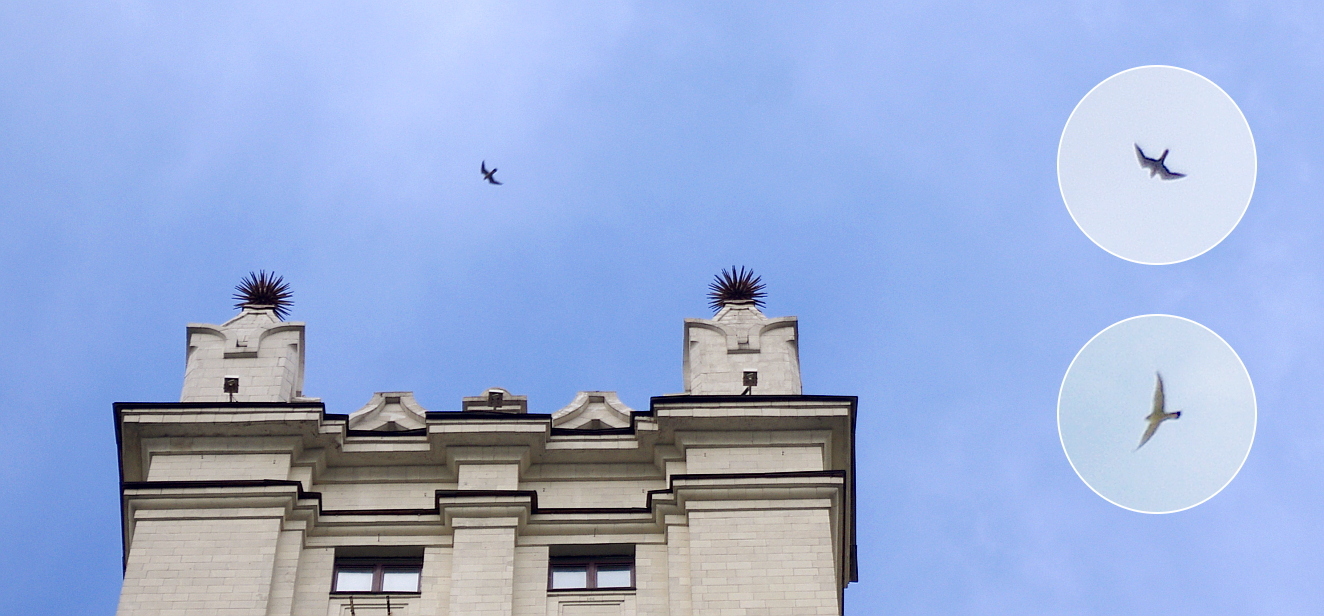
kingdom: Animalia
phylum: Chordata
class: Aves
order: Falconiformes
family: Falconidae
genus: Falco
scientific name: Falco peregrinus
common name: Peregrine falcon
